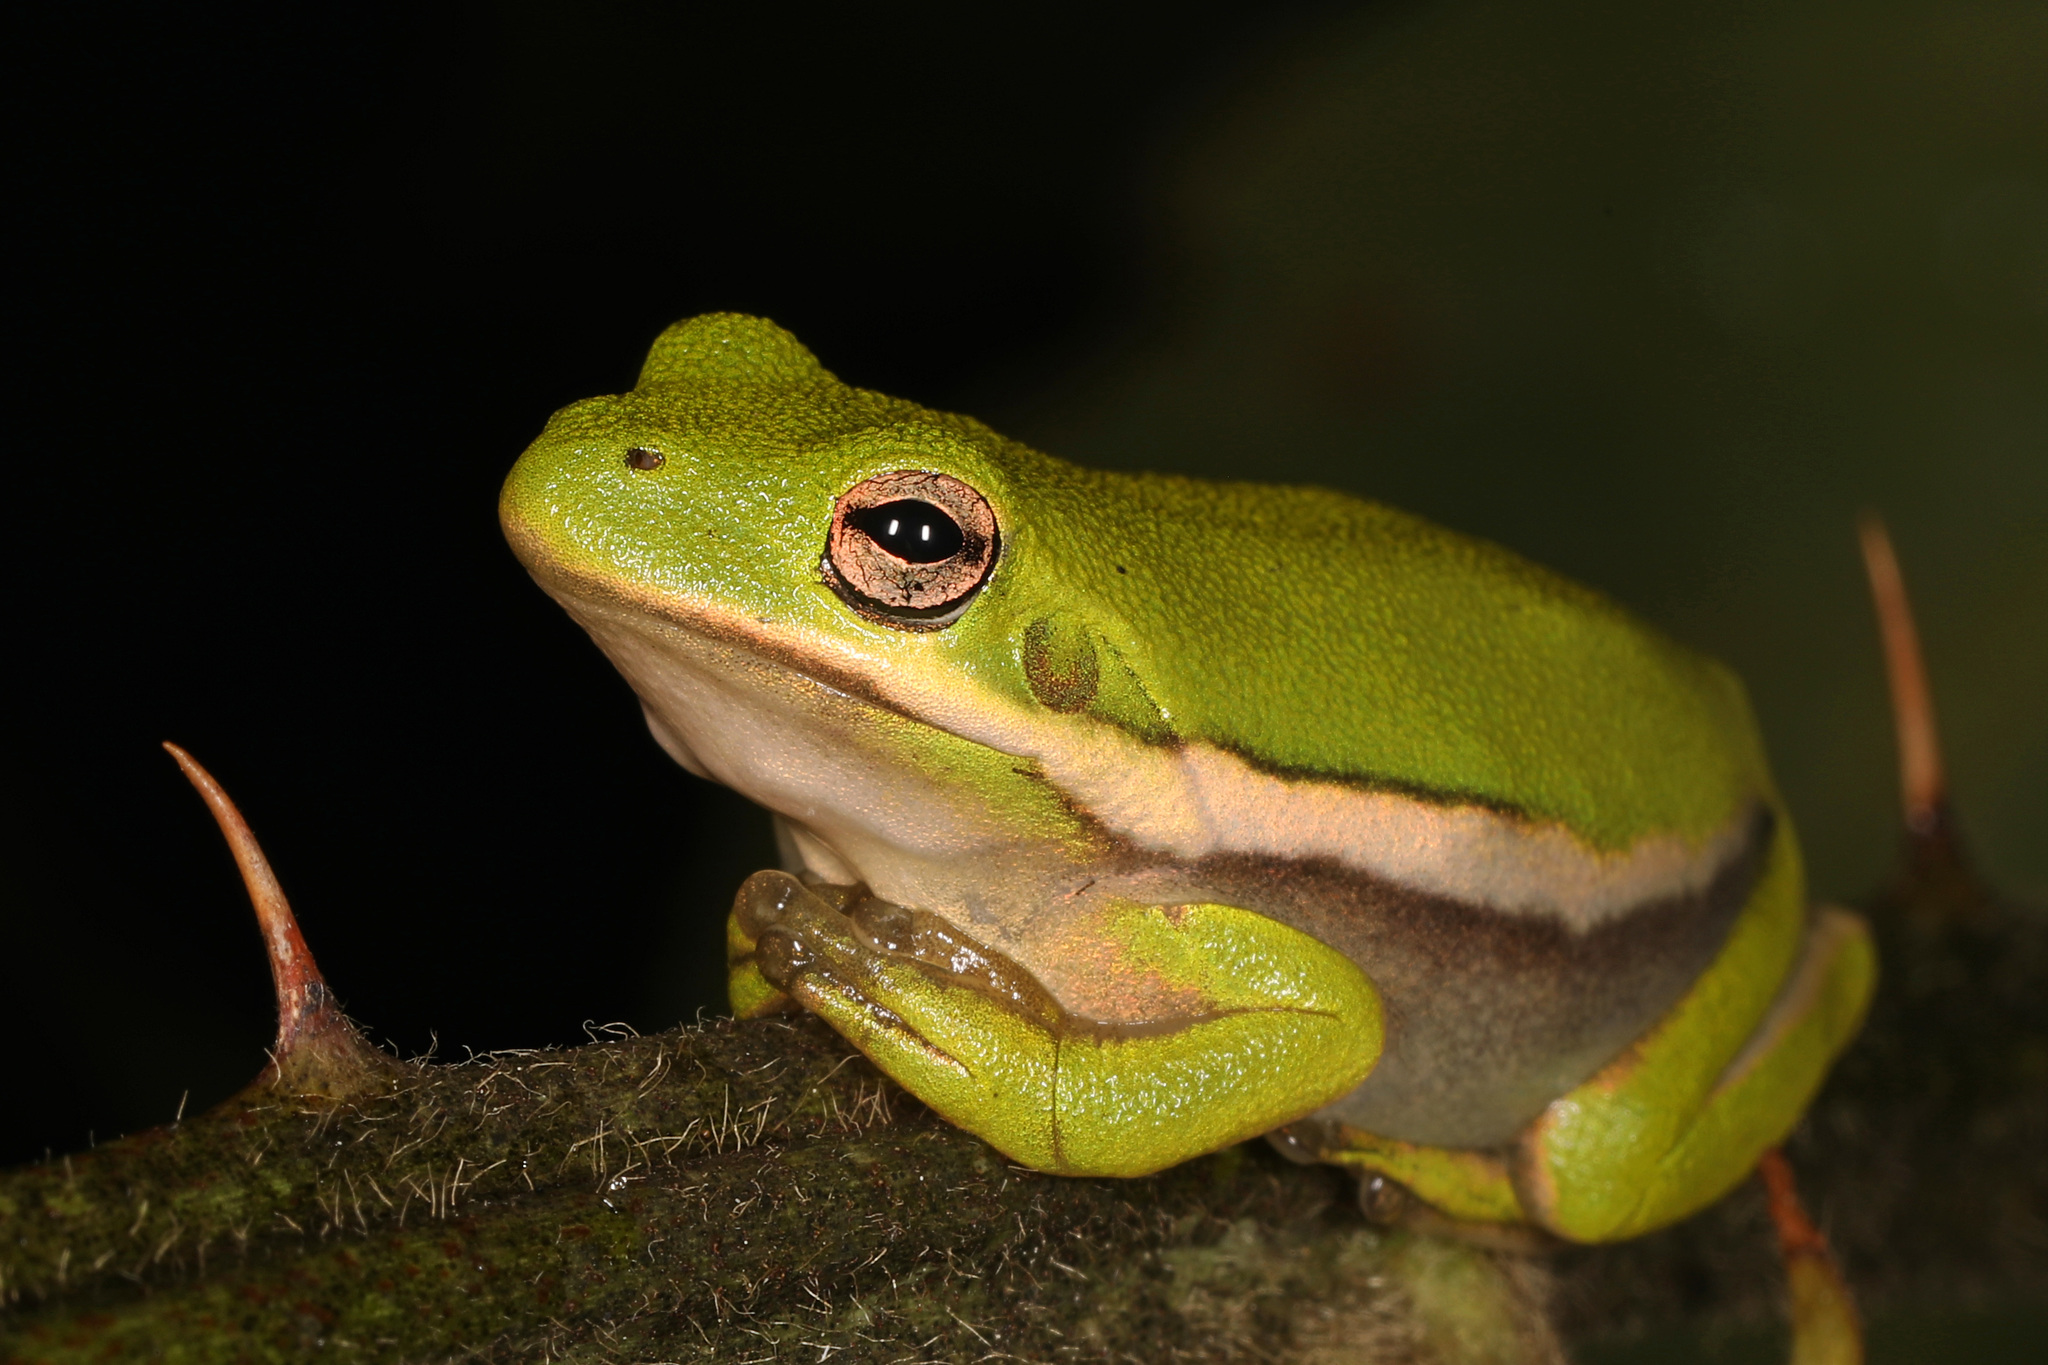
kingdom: Animalia
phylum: Chordata
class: Amphibia
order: Anura
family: Hylidae
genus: Dryophytes
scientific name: Dryophytes cinereus
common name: Green treefrog
